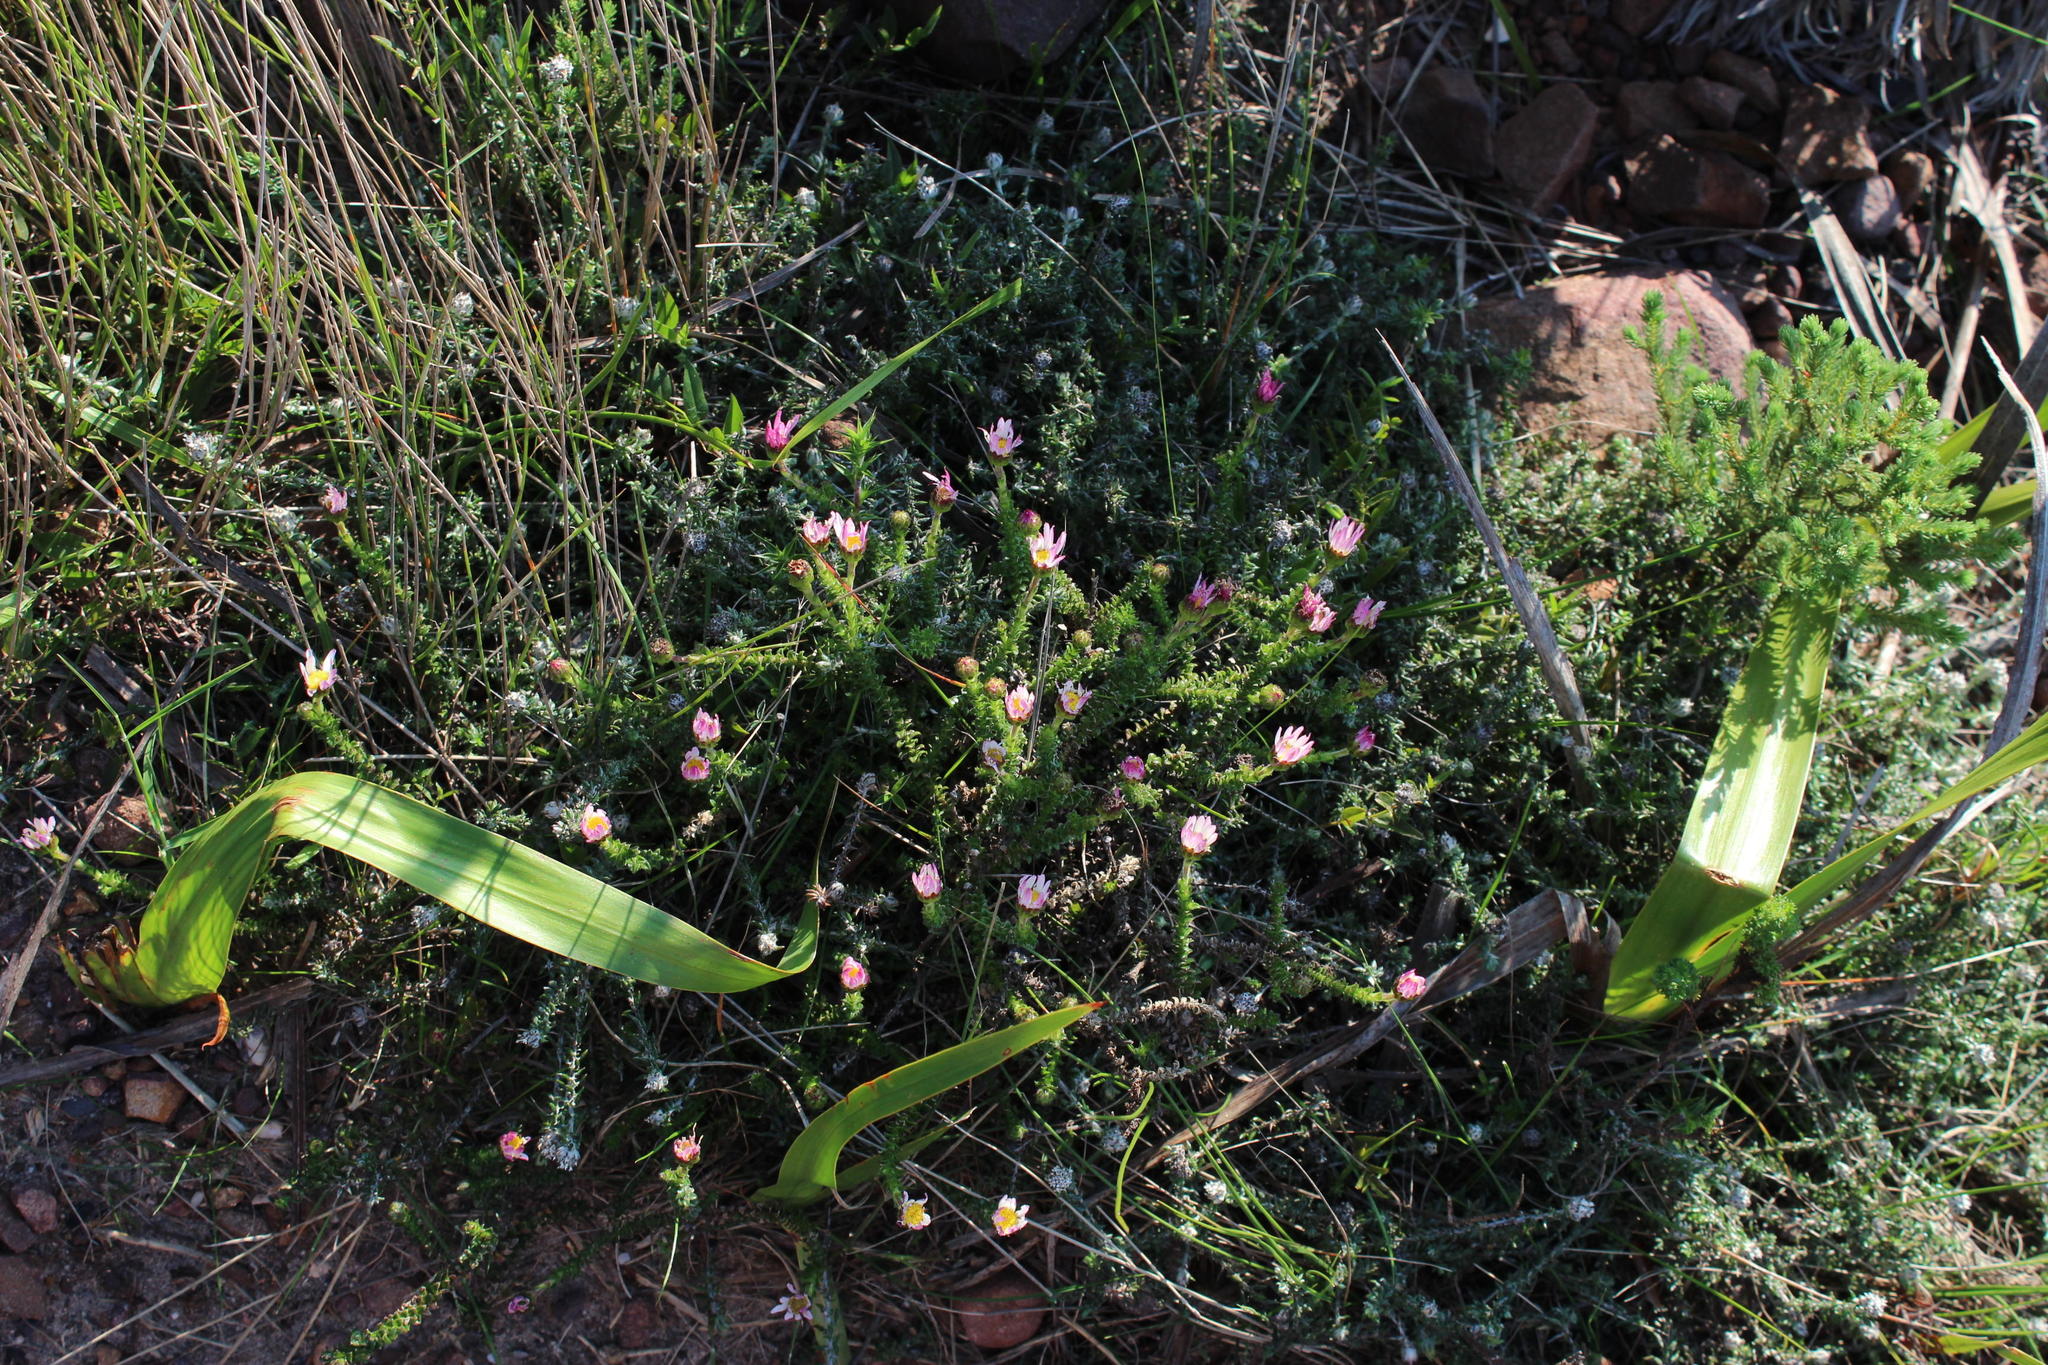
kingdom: Plantae
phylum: Tracheophyta
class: Magnoliopsida
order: Asterales
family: Asteraceae
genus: Polyarrhena
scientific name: Polyarrhena reflexa
